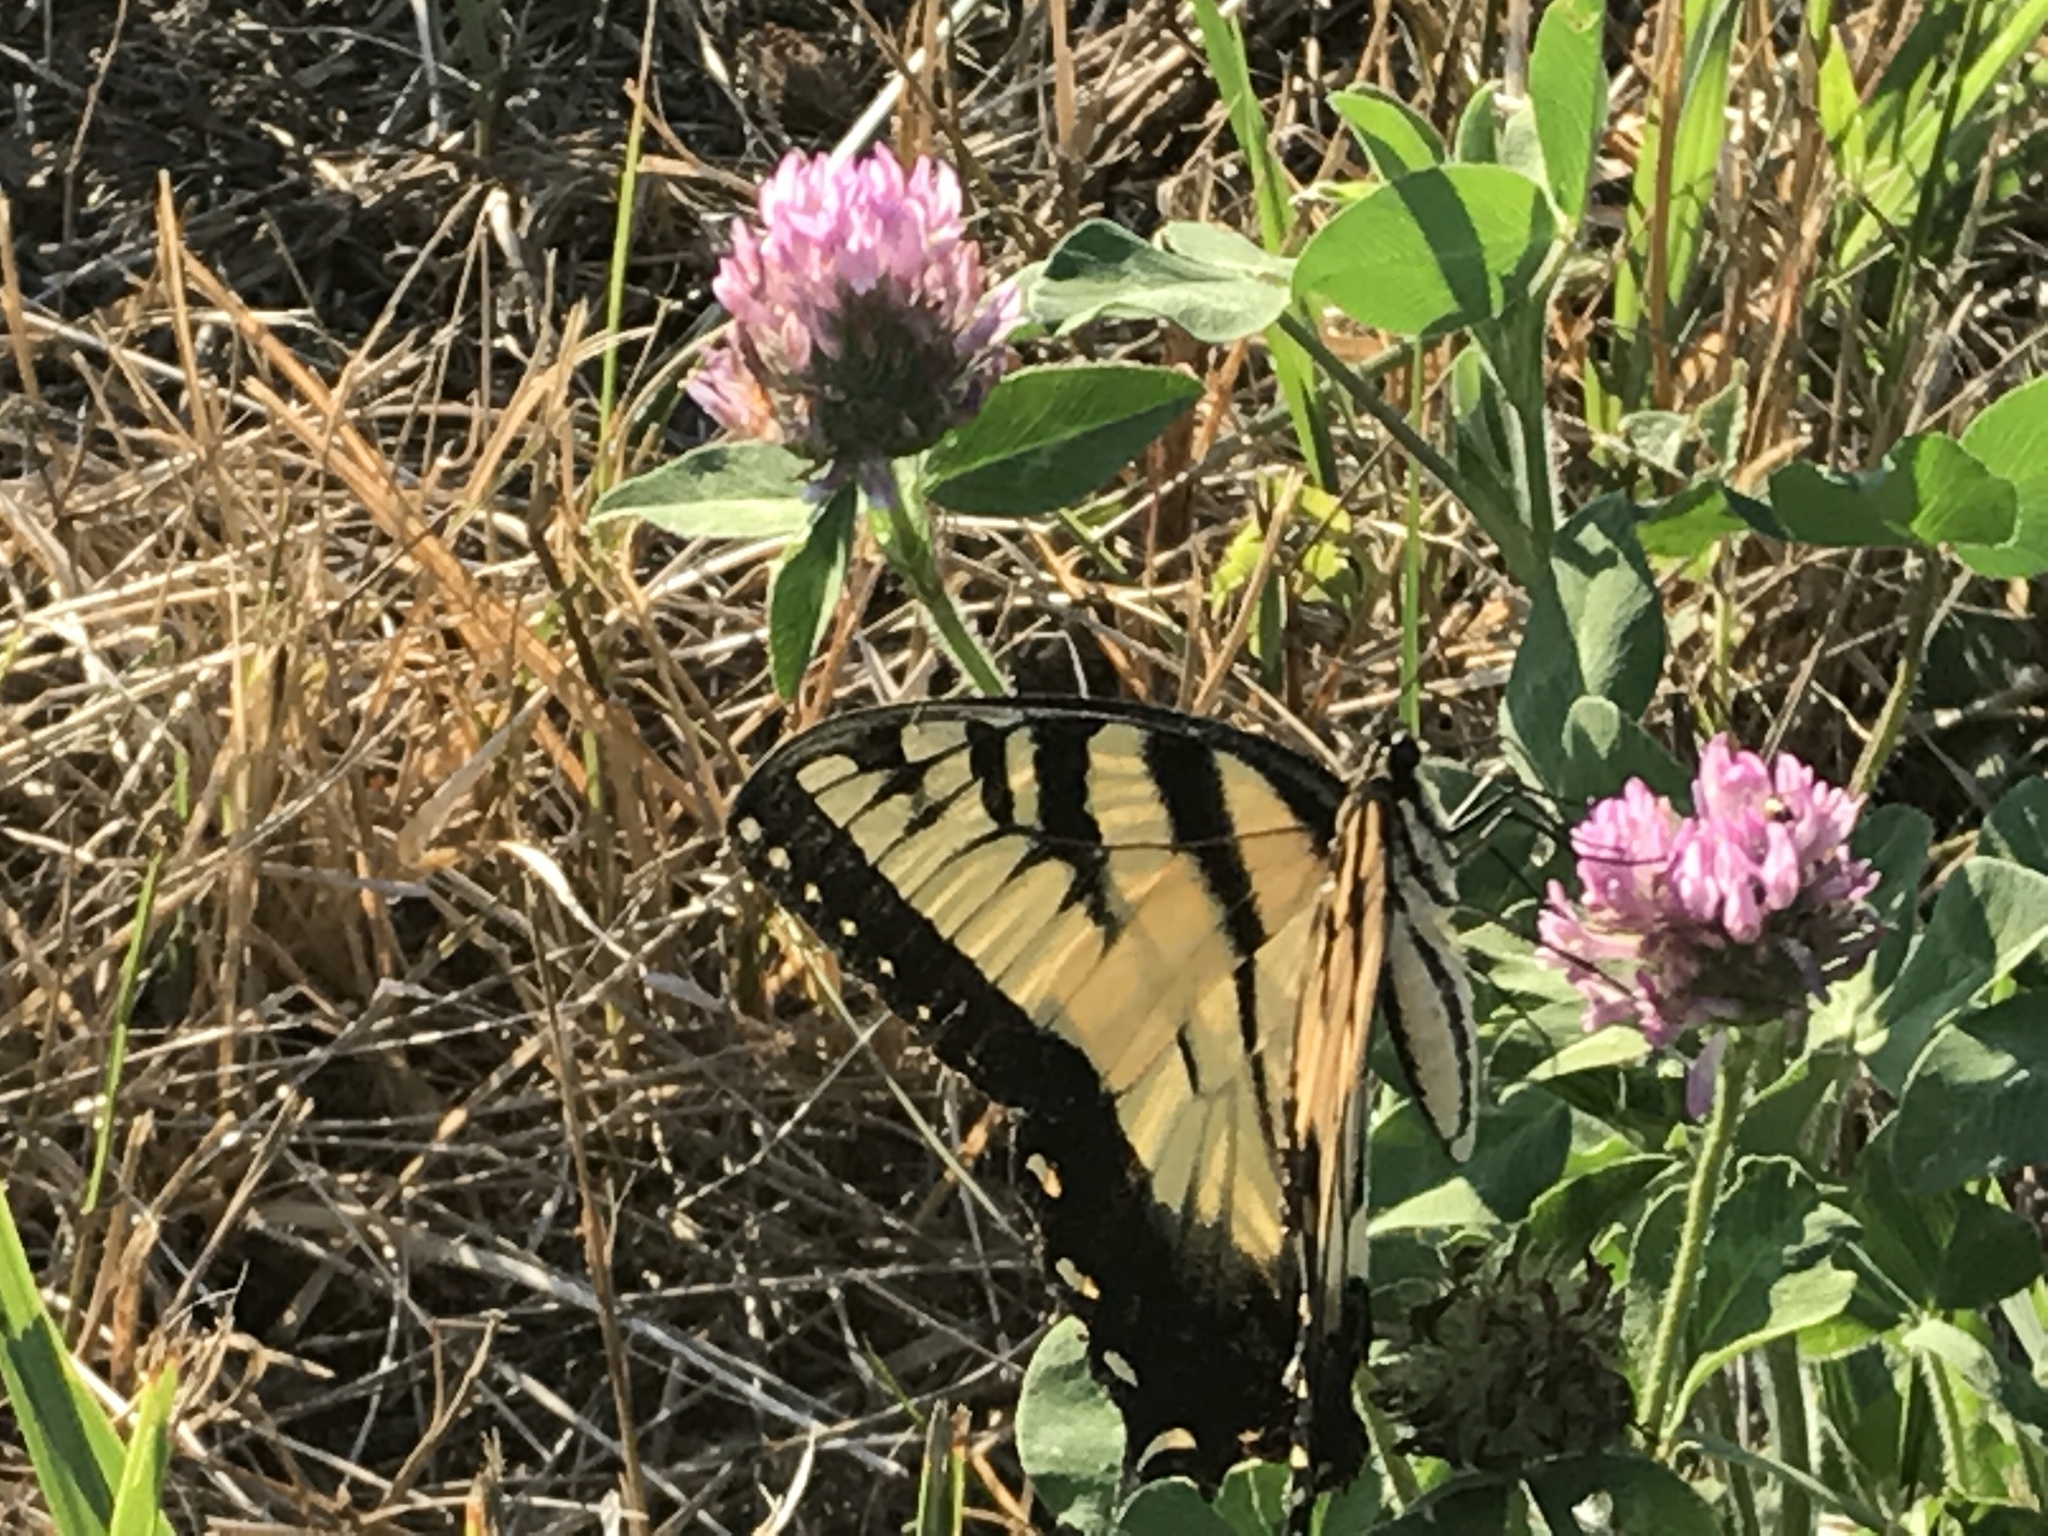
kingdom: Animalia
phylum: Arthropoda
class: Insecta
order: Lepidoptera
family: Papilionidae
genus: Papilio
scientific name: Papilio glaucus
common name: Tiger swallowtail
